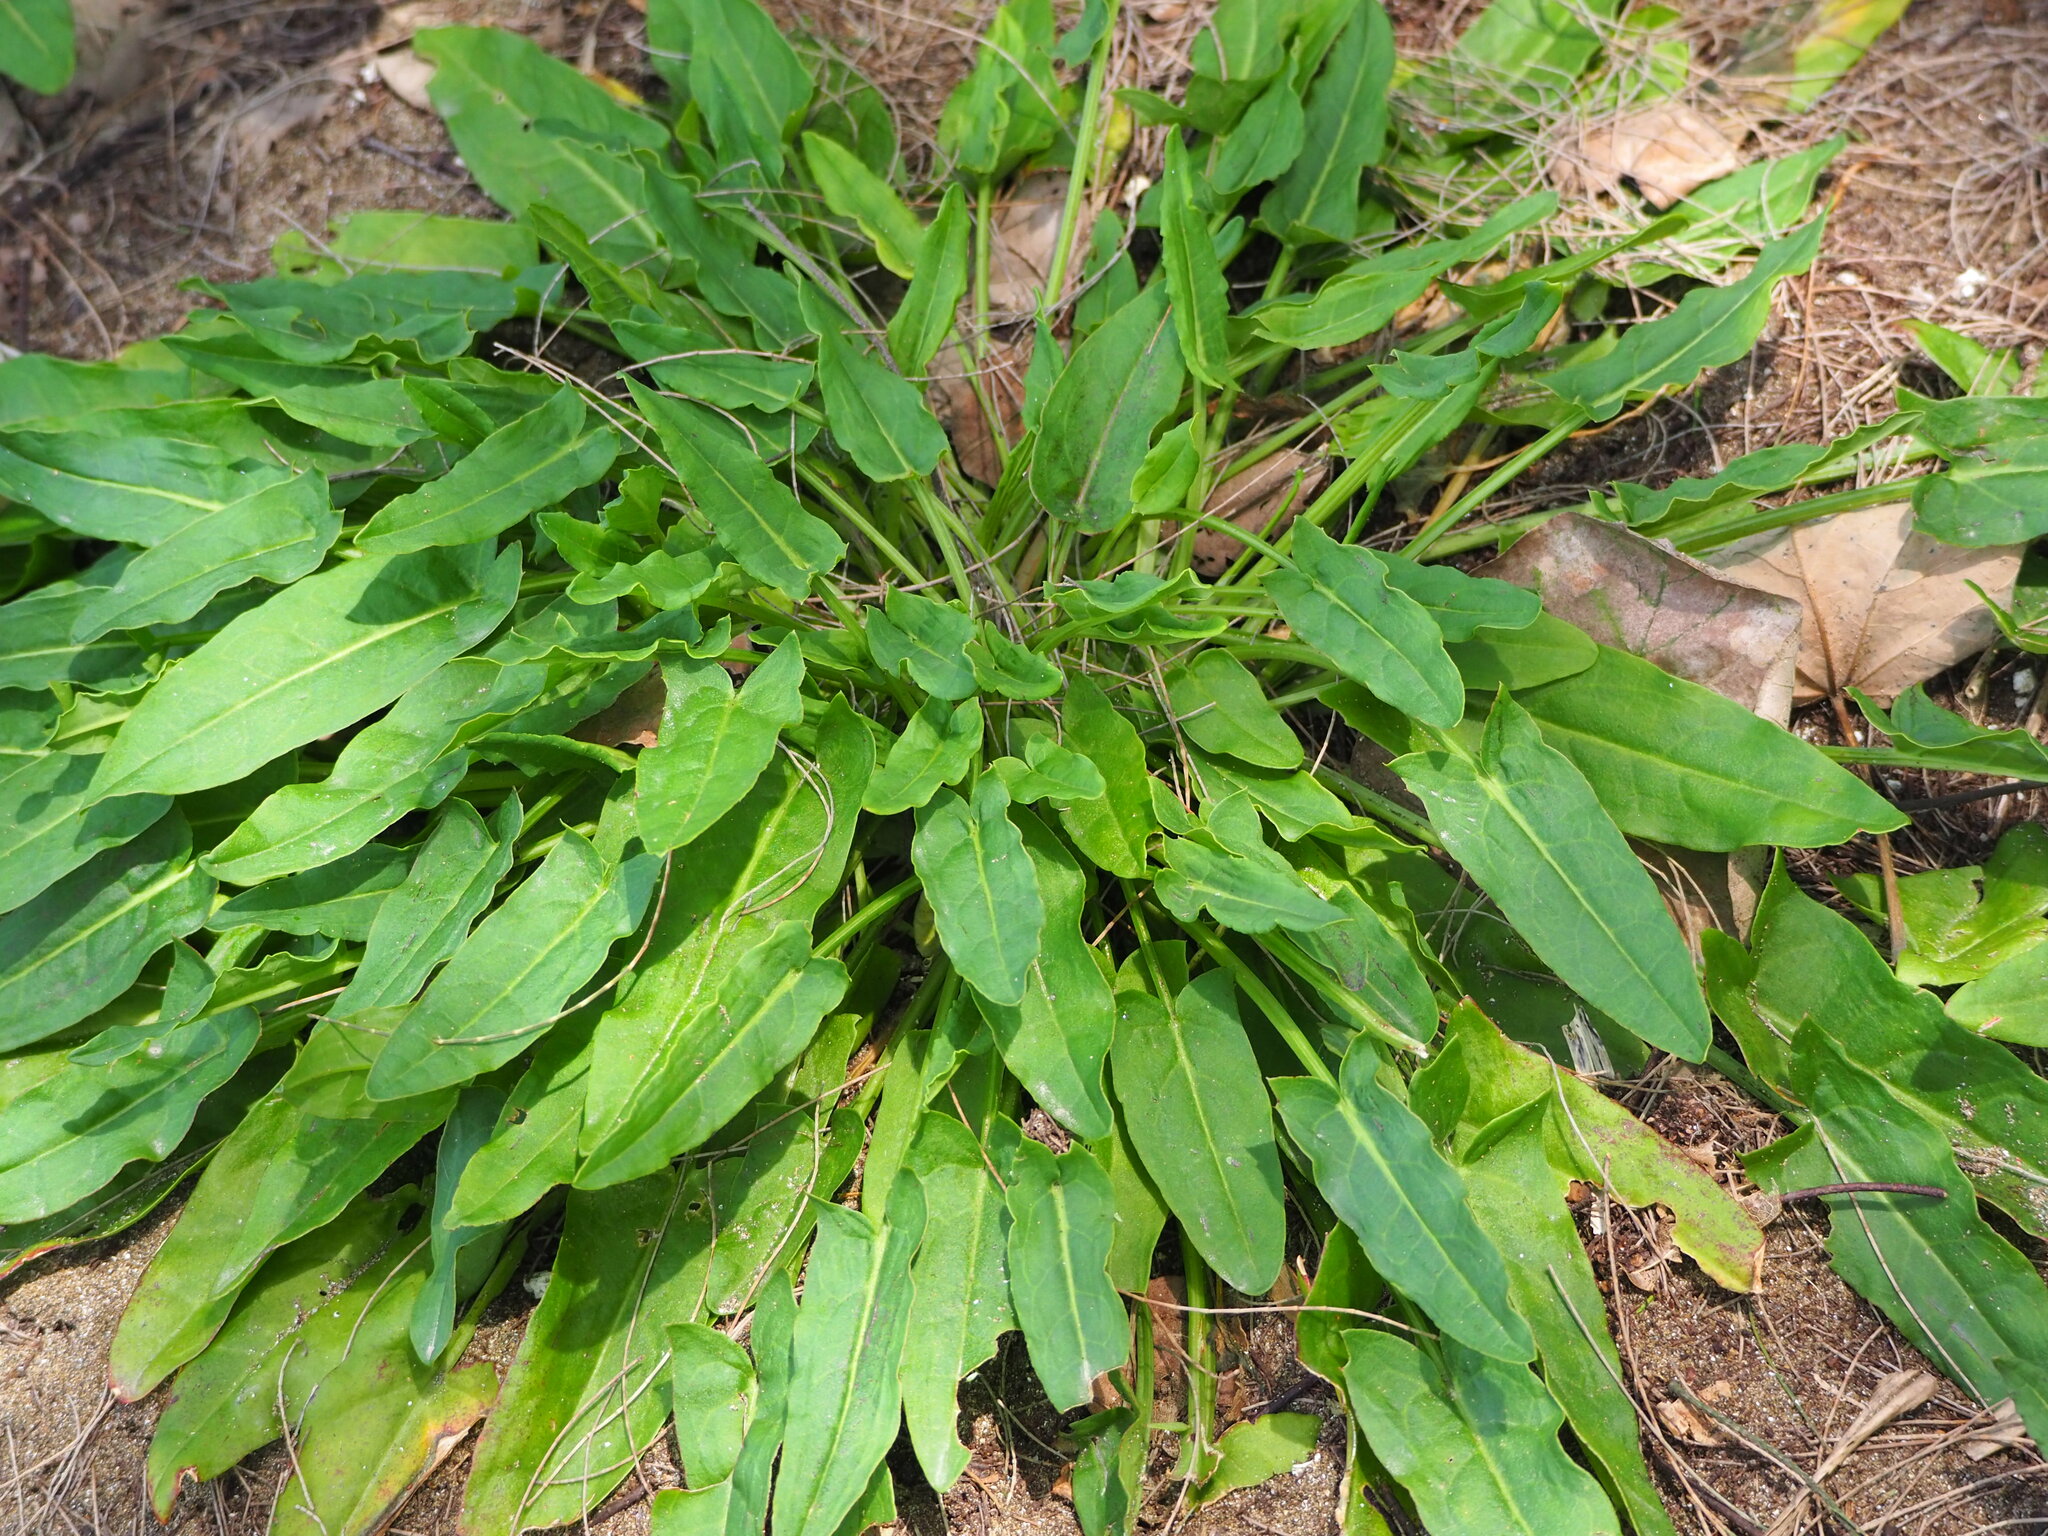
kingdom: Plantae
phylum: Tracheophyta
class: Magnoliopsida
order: Caryophyllales
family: Polygonaceae
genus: Rumex
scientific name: Rumex acetosa
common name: Garden sorrel
